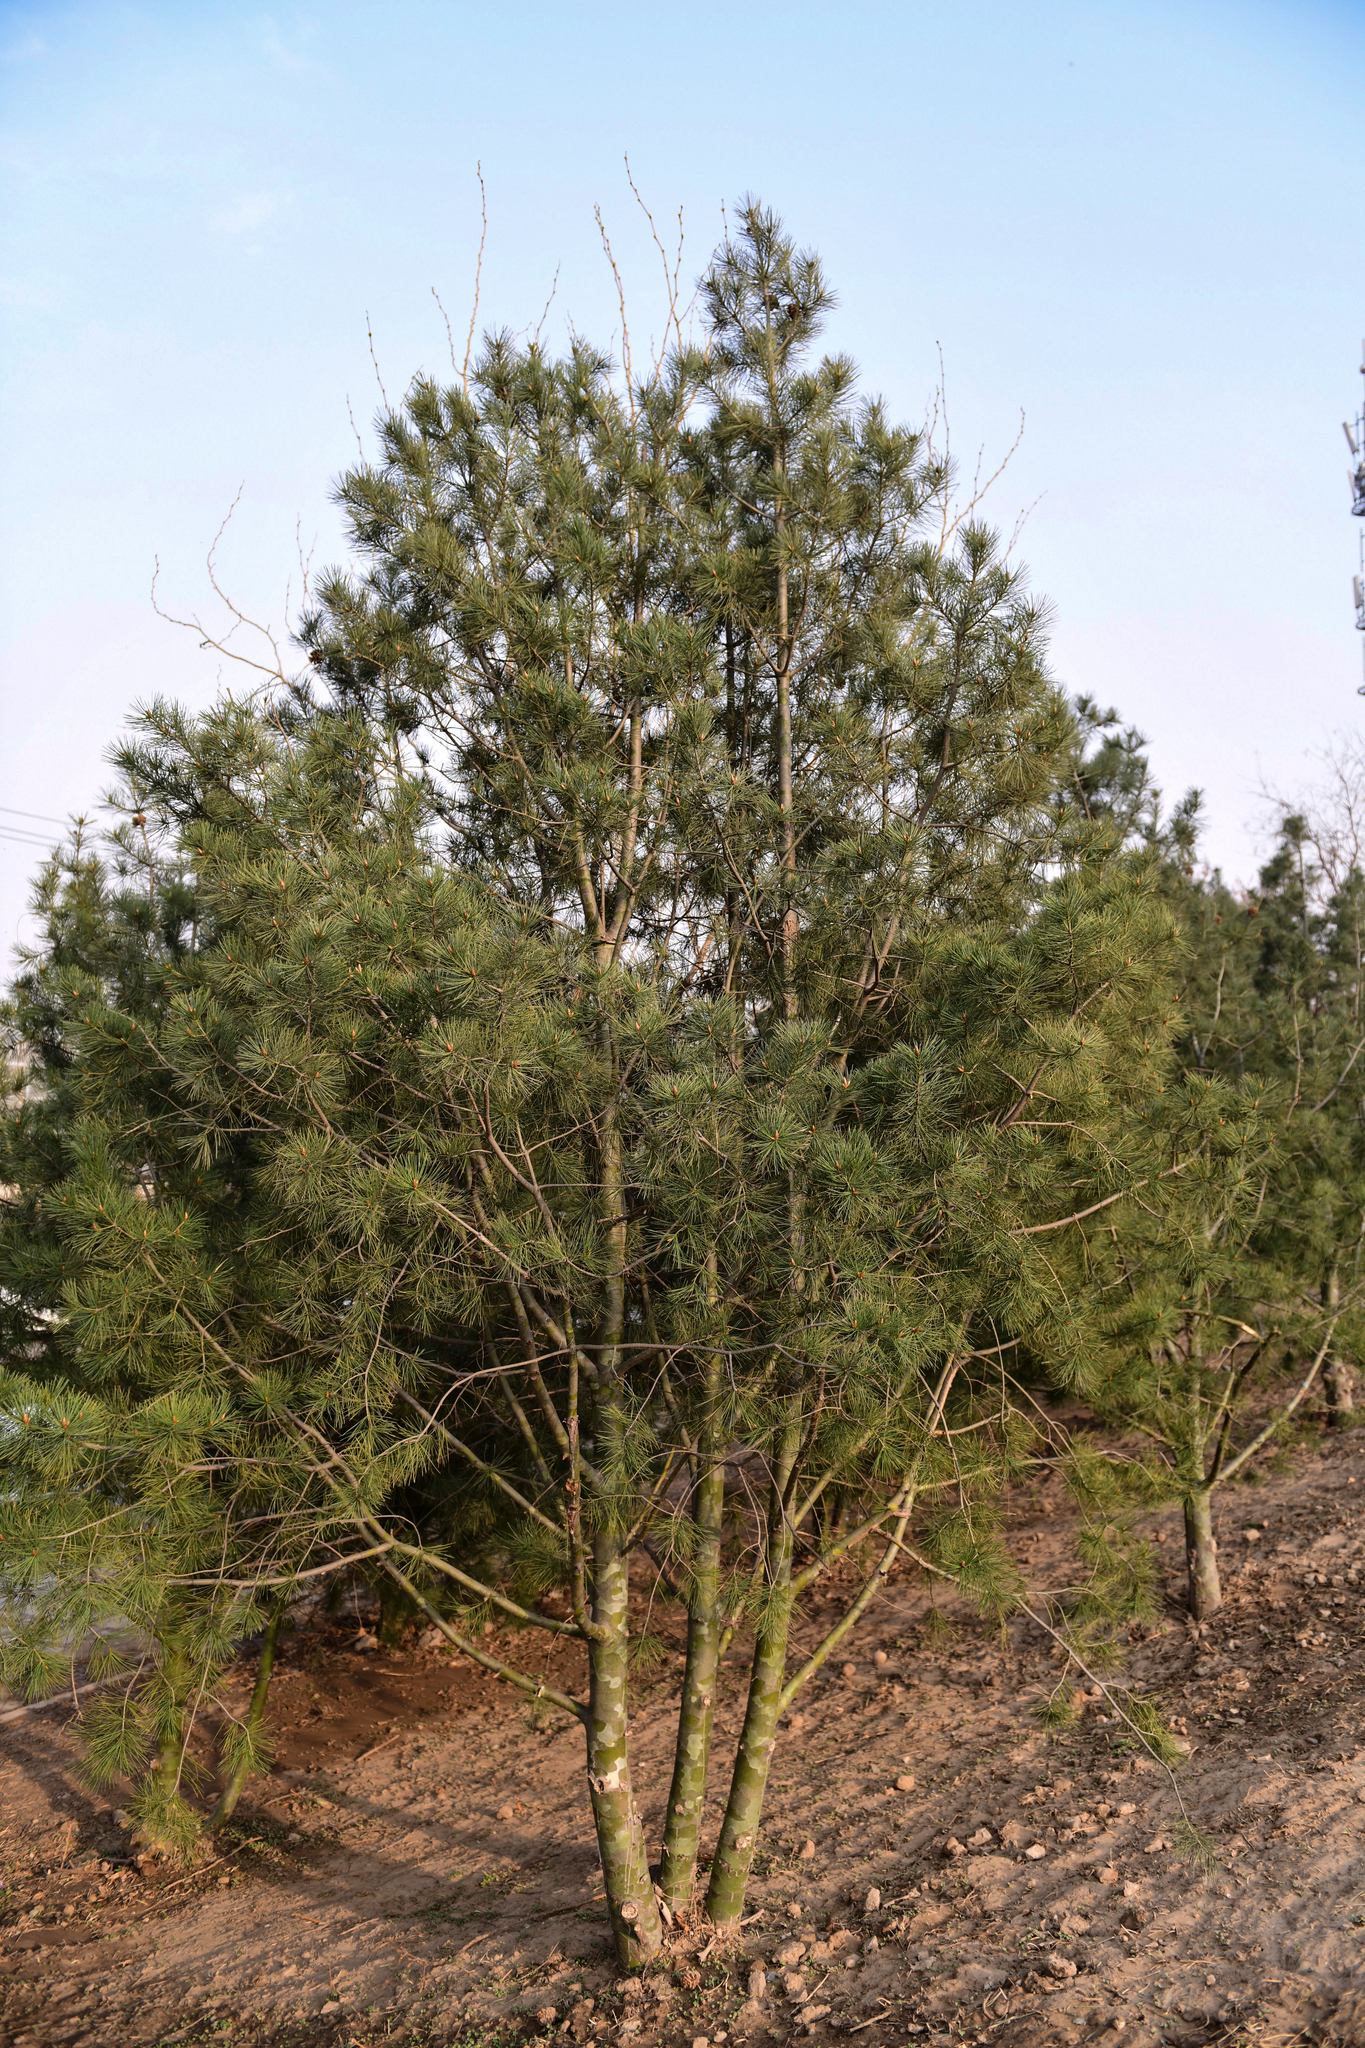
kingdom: Plantae
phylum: Tracheophyta
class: Pinopsida
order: Pinales
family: Pinaceae
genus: Pinus
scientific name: Pinus bungeana
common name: Lace-bark pine
